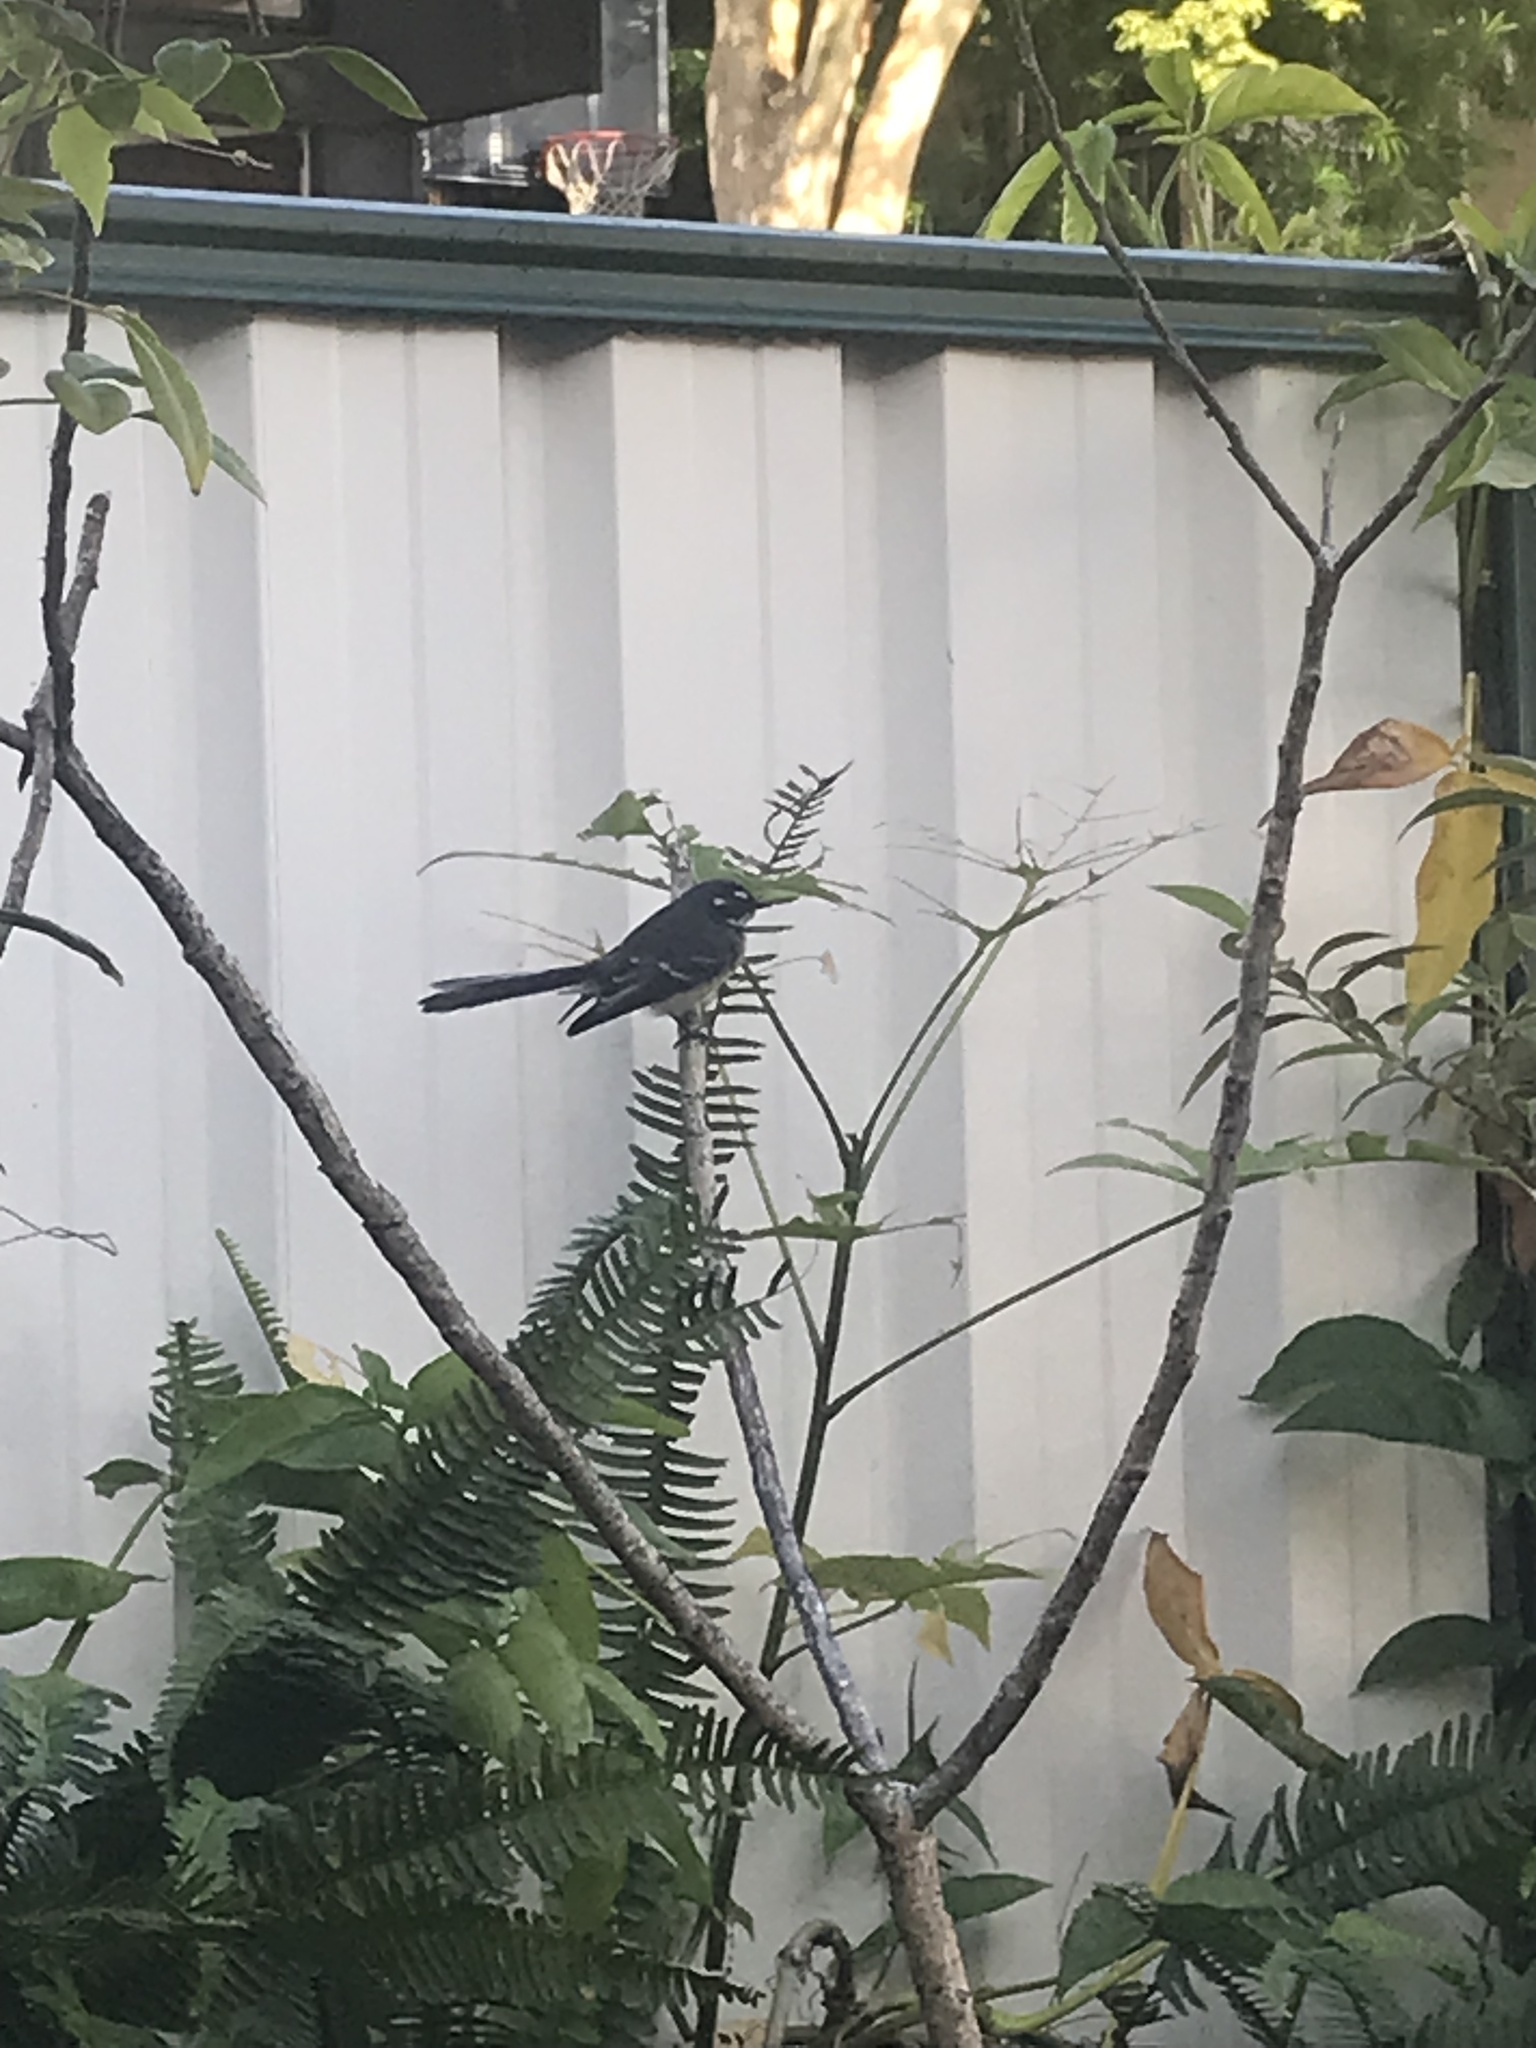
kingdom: Animalia
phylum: Chordata
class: Aves
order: Passeriformes
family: Rhipiduridae
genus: Rhipidura
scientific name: Rhipidura albiscapa
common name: Grey fantail
